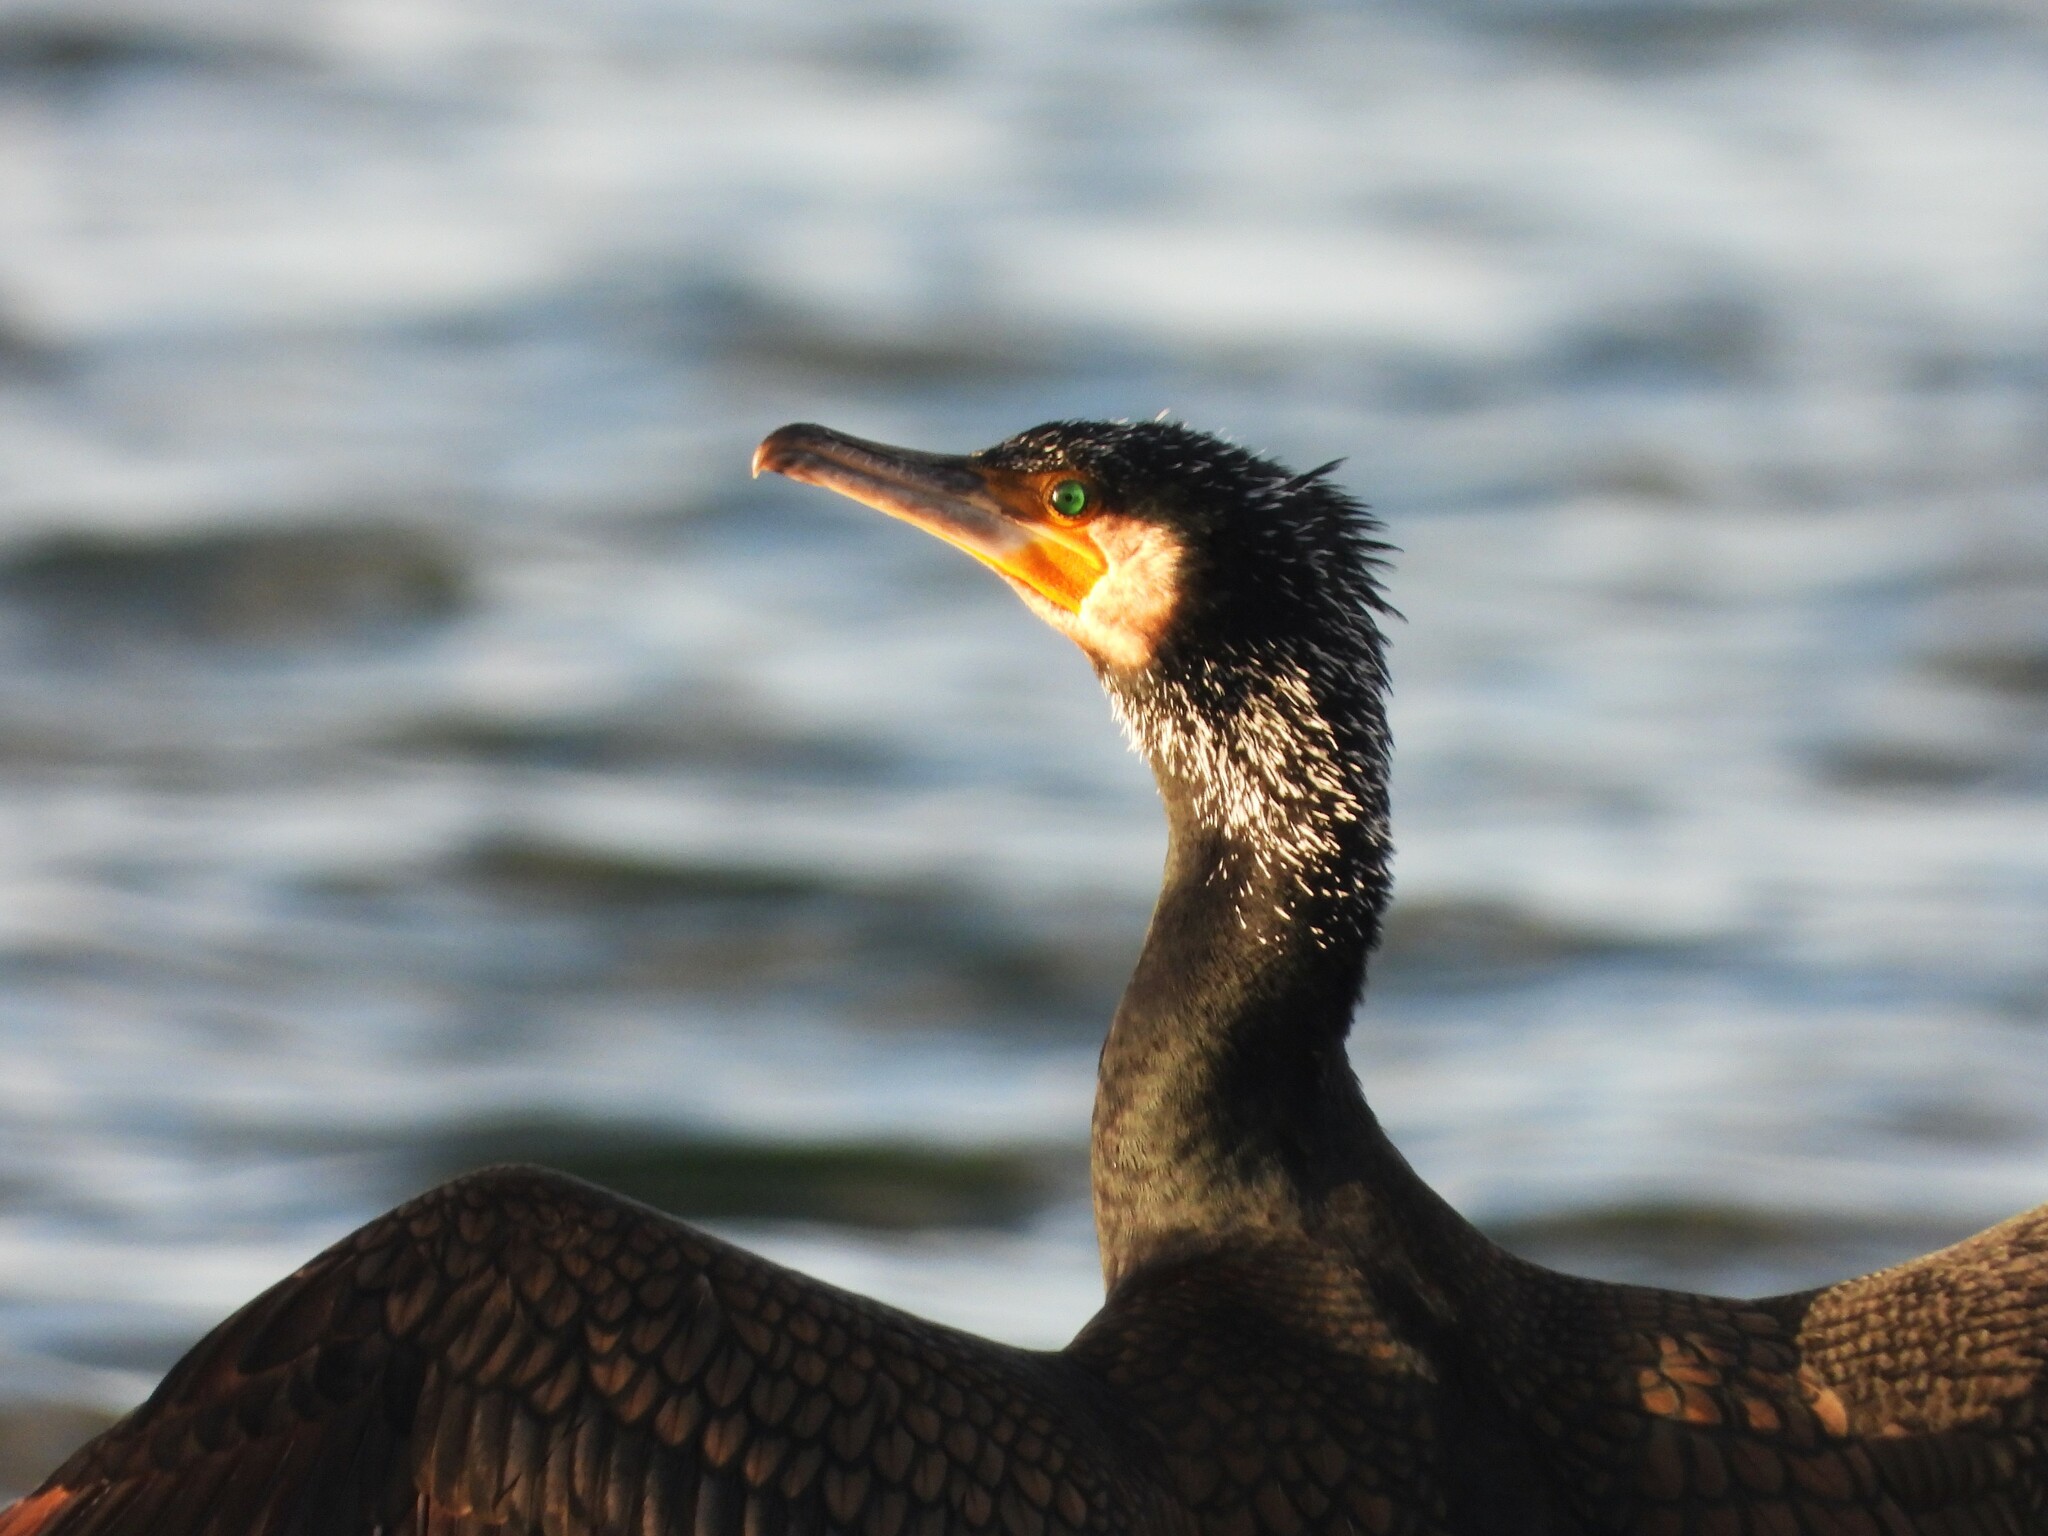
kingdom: Animalia
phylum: Chordata
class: Aves
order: Suliformes
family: Phalacrocoracidae
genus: Phalacrocorax
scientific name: Phalacrocorax carbo
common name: Great cormorant
